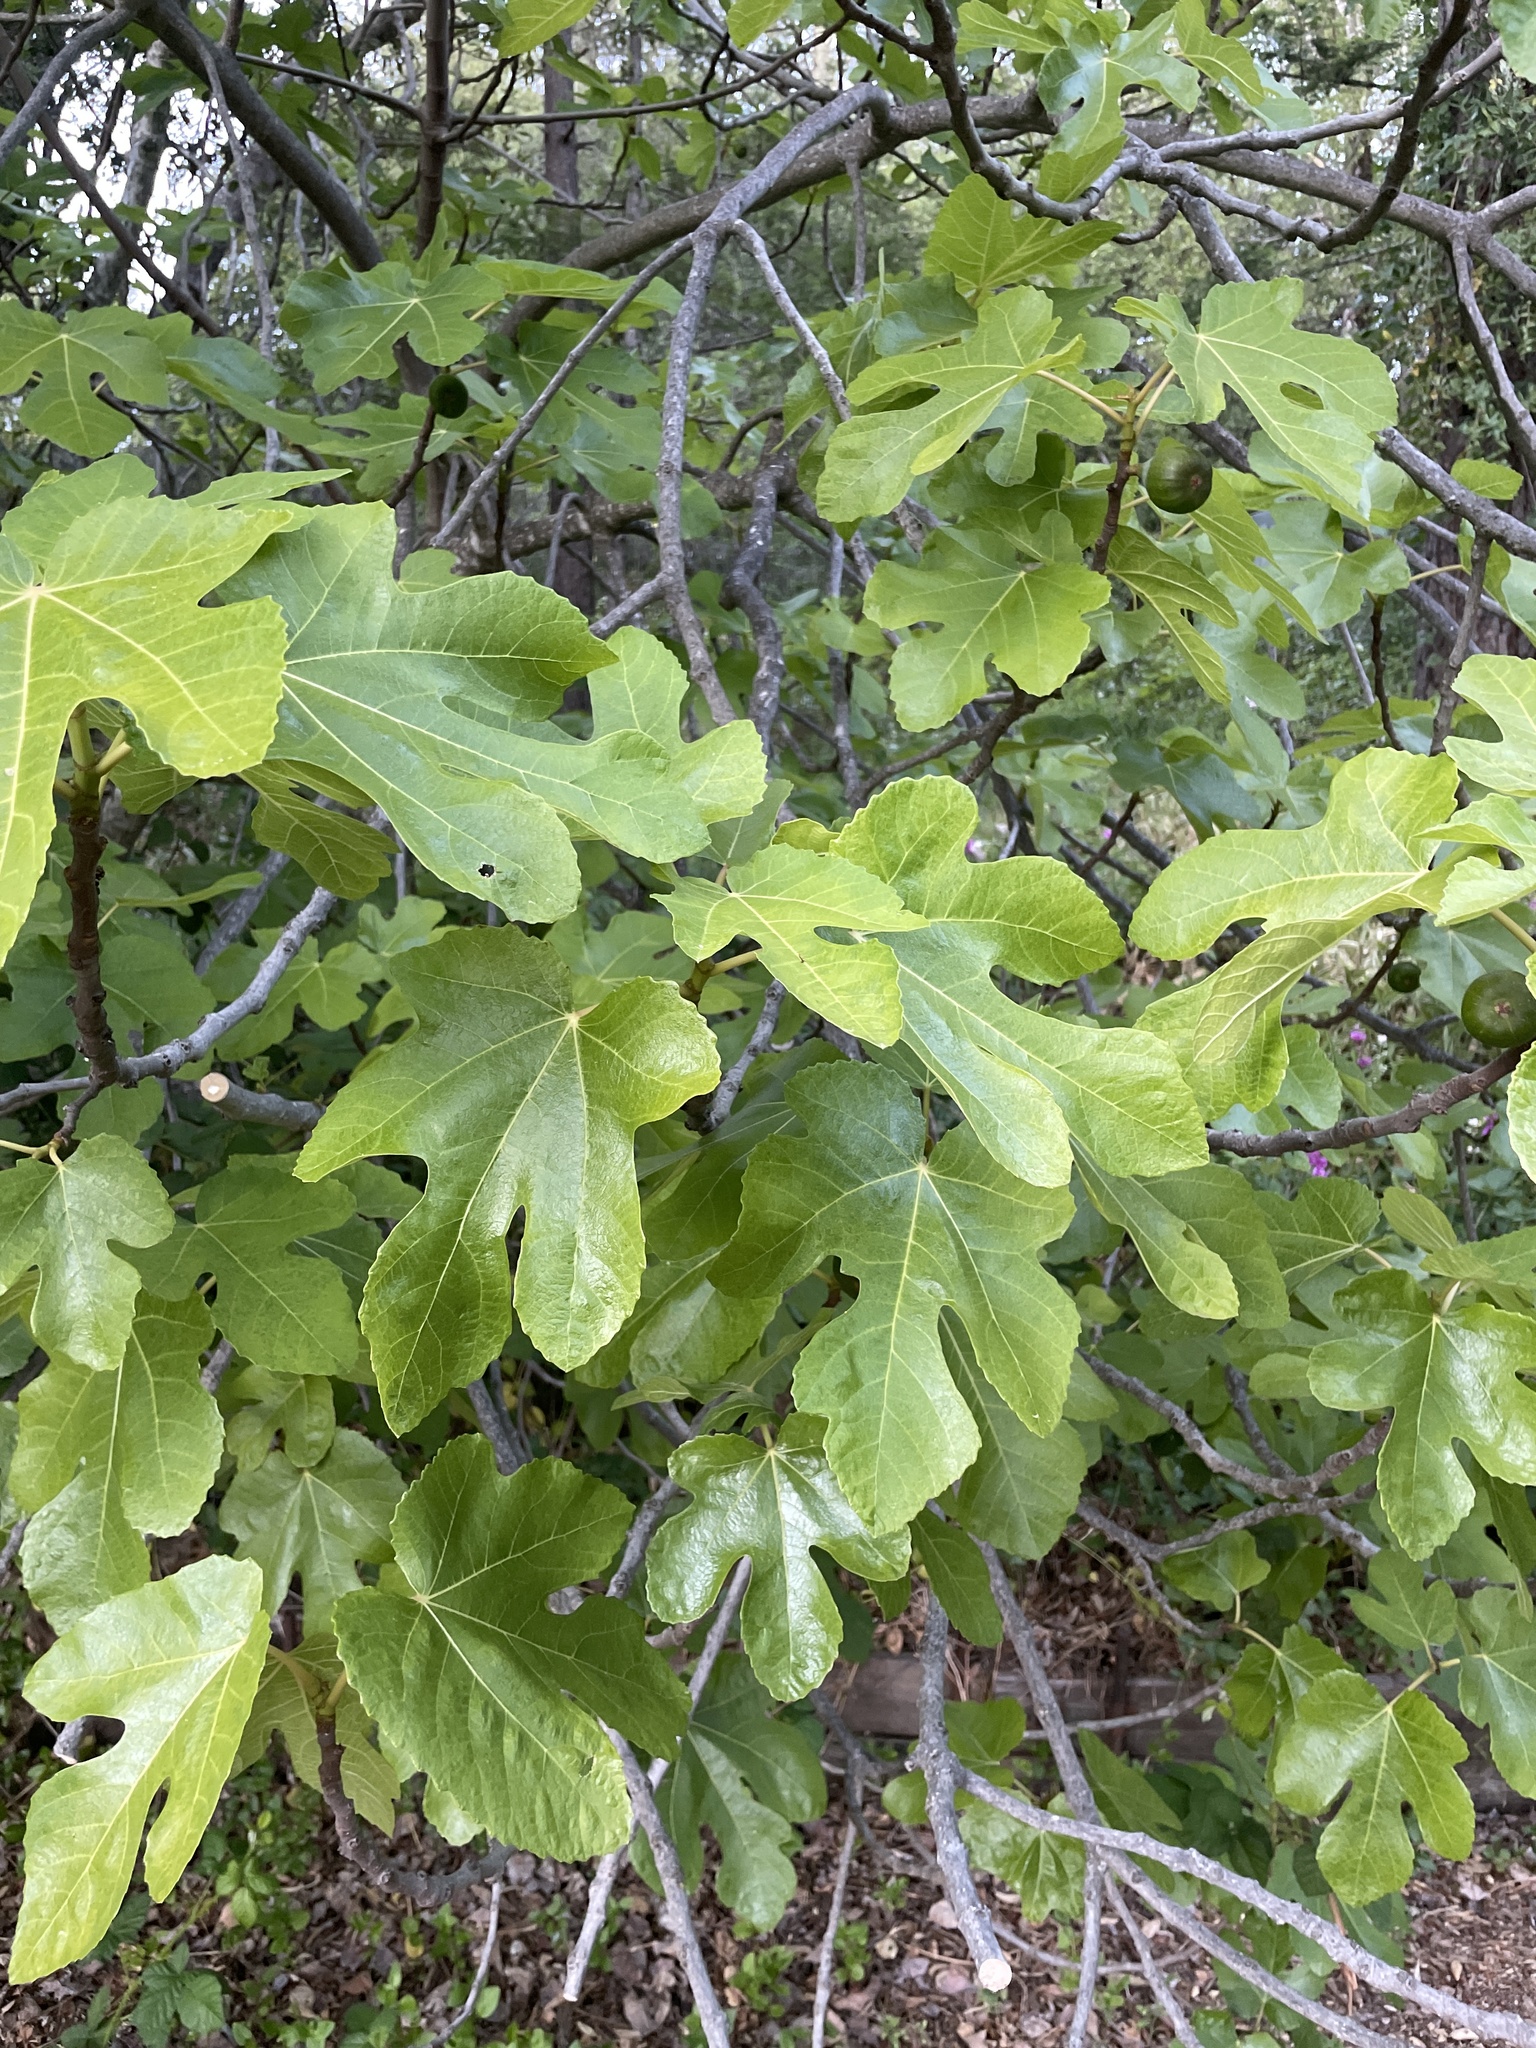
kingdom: Plantae
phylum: Tracheophyta
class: Magnoliopsida
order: Rosales
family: Moraceae
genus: Ficus
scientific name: Ficus carica
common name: Fig
